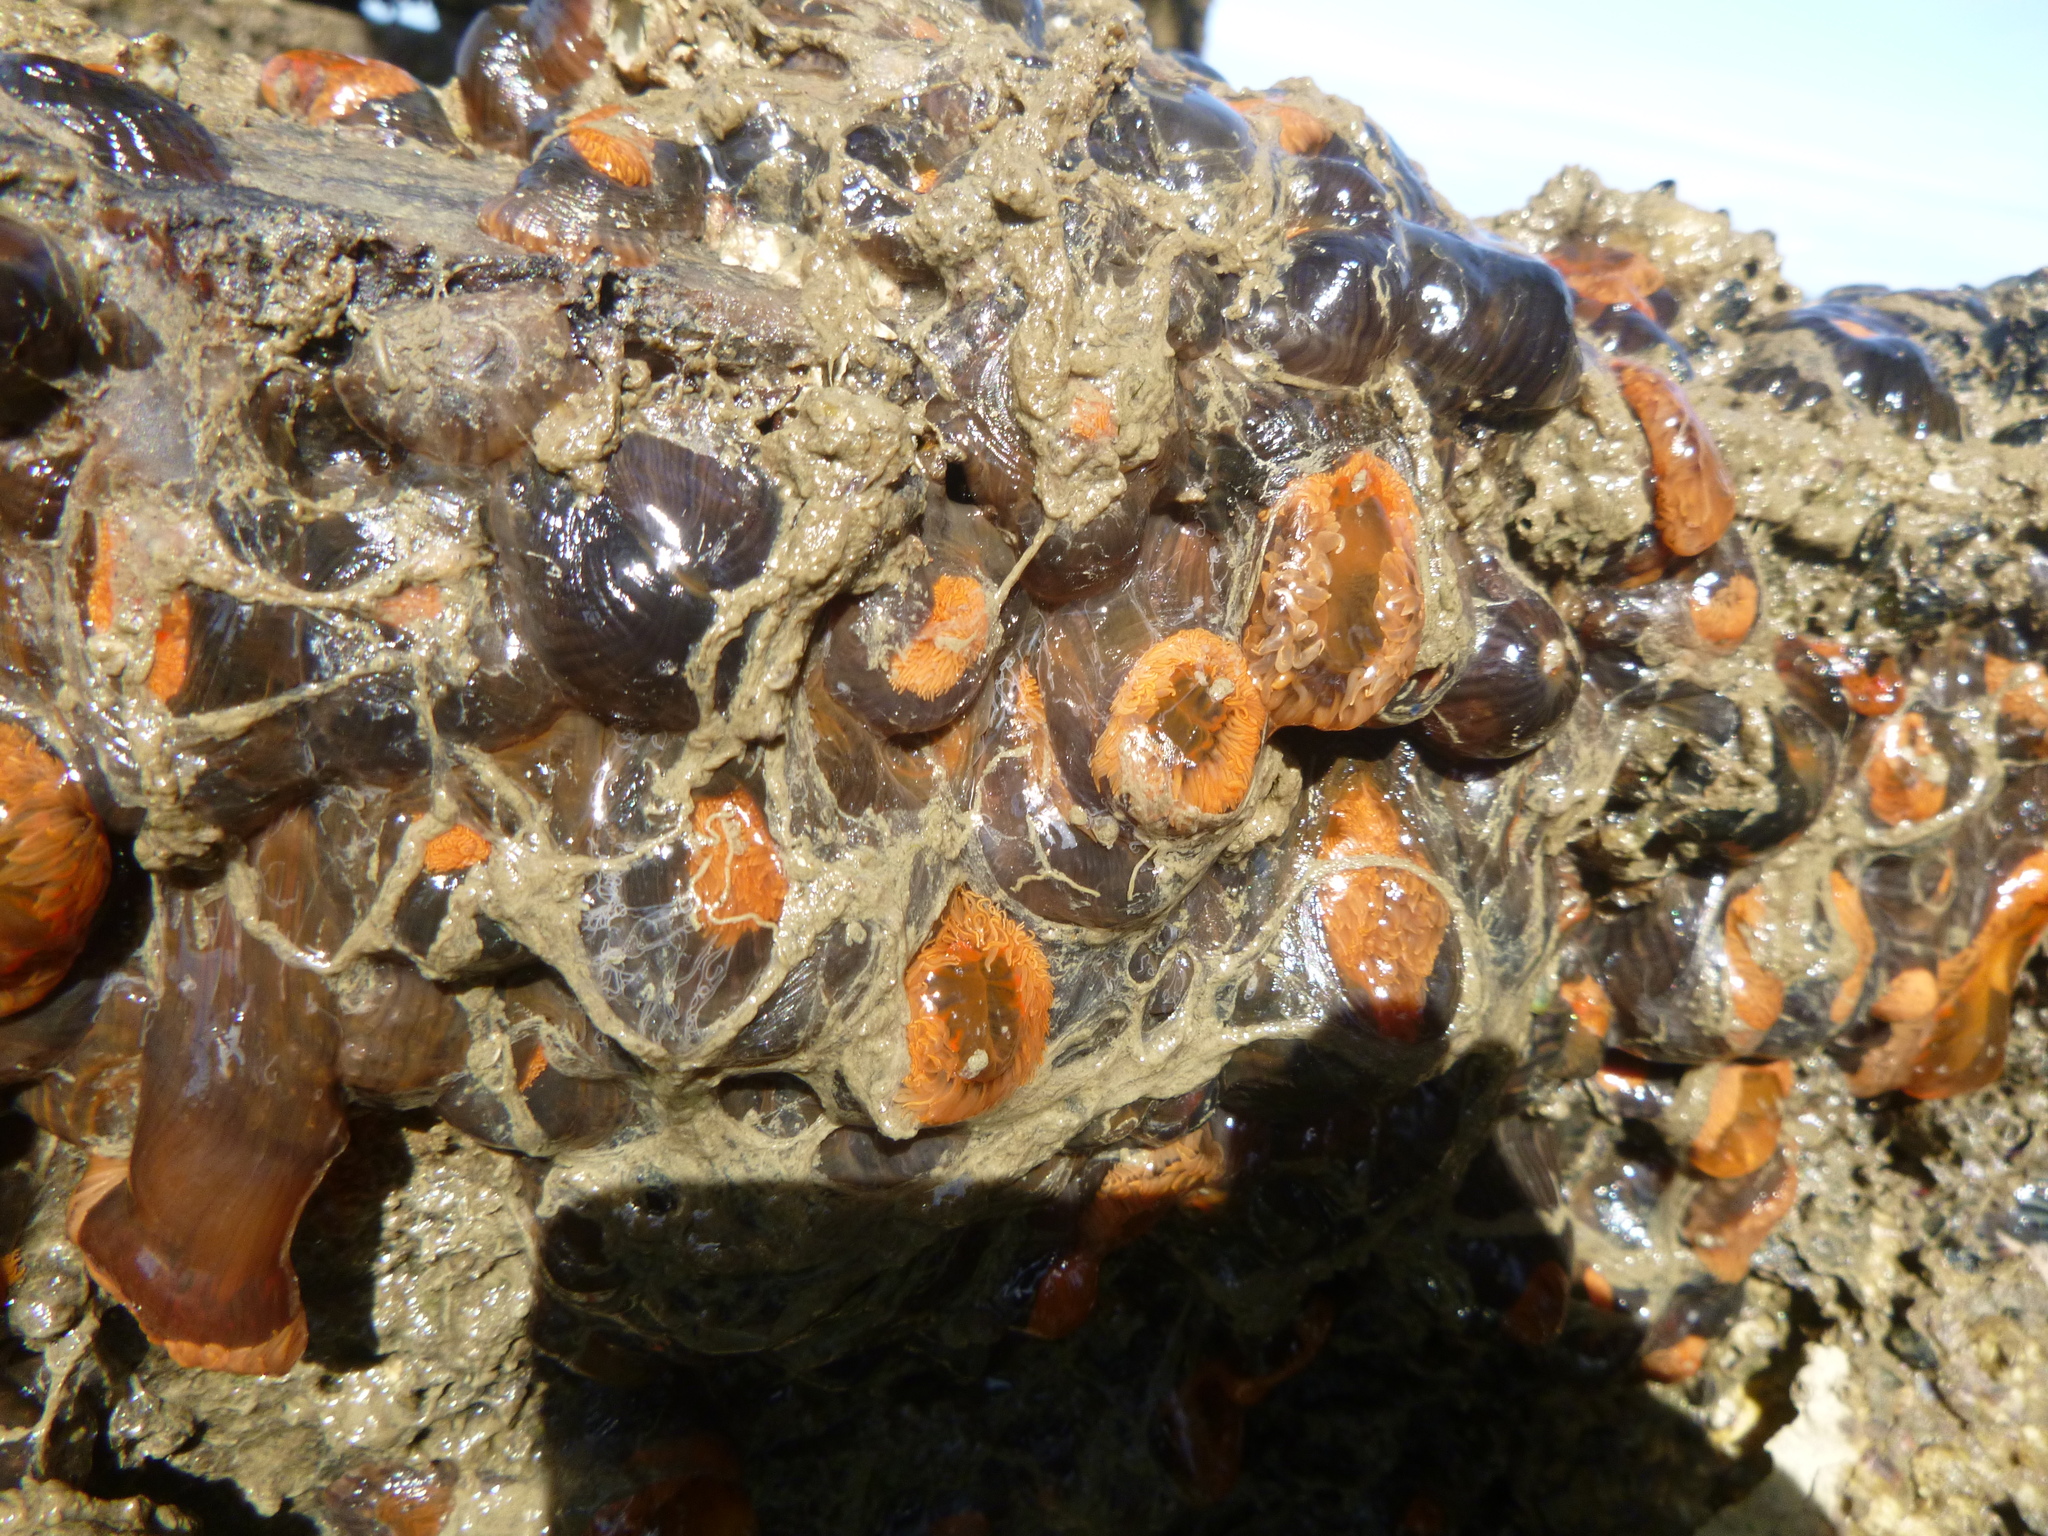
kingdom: Animalia
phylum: Cnidaria
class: Anthozoa
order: Actiniaria
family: Diadumenidae
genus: Diadumene
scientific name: Diadumene neozelanica
